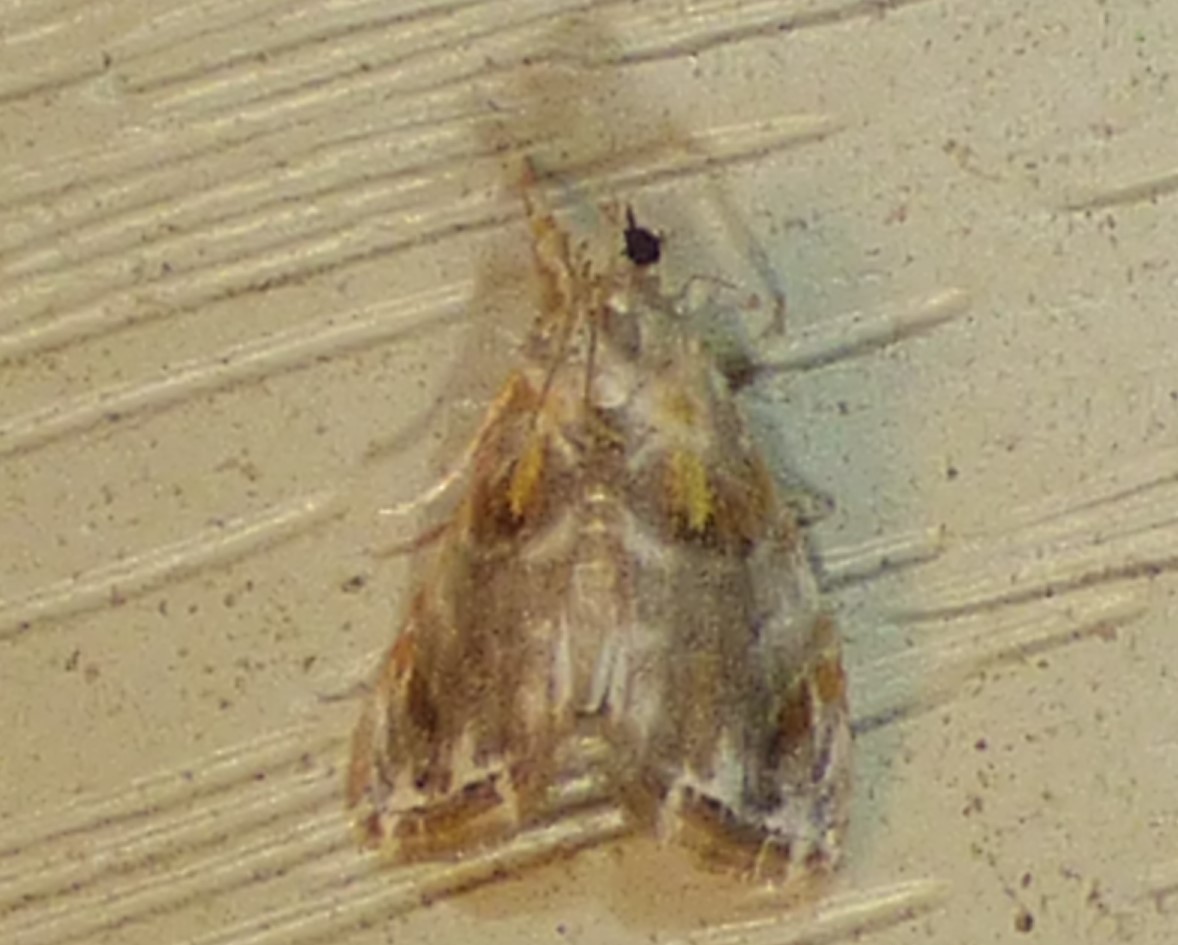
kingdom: Animalia
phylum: Arthropoda
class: Insecta
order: Lepidoptera
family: Crambidae
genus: Glaphyria
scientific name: Glaphyria basiflavalis
